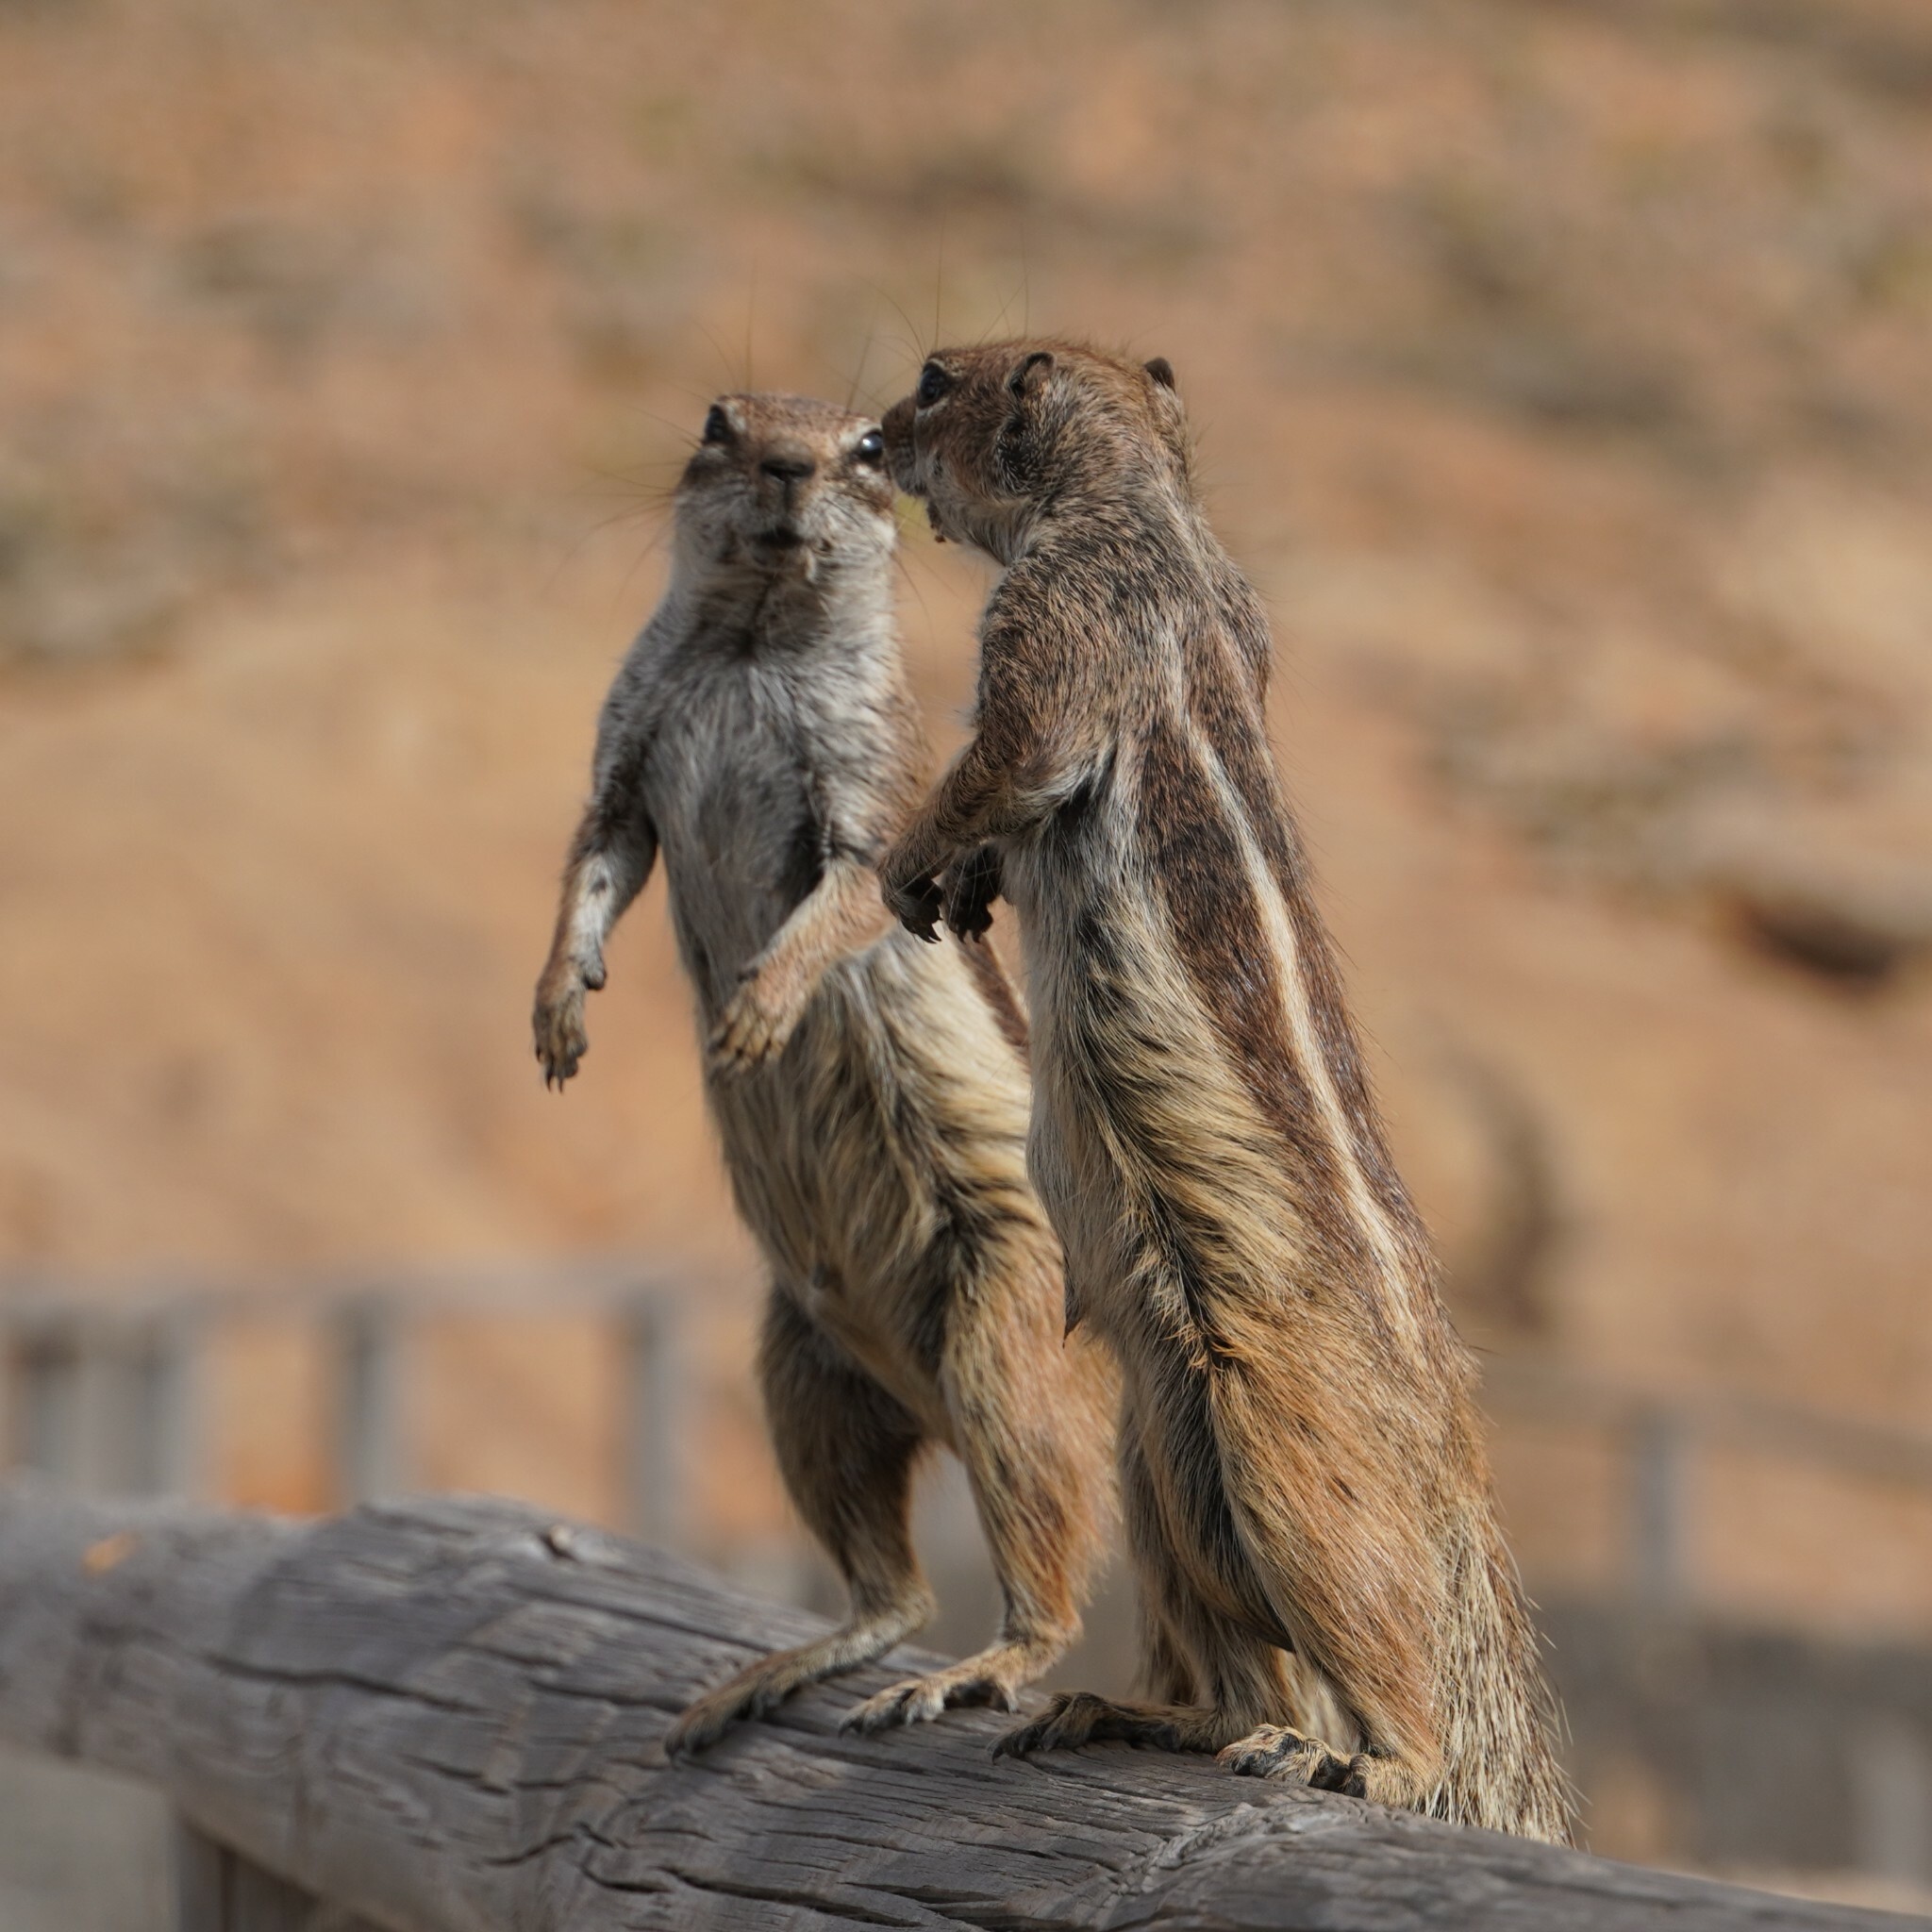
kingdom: Animalia
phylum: Chordata
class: Mammalia
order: Rodentia
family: Sciuridae
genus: Atlantoxerus
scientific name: Atlantoxerus getulus
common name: Barbary ground squirrel
